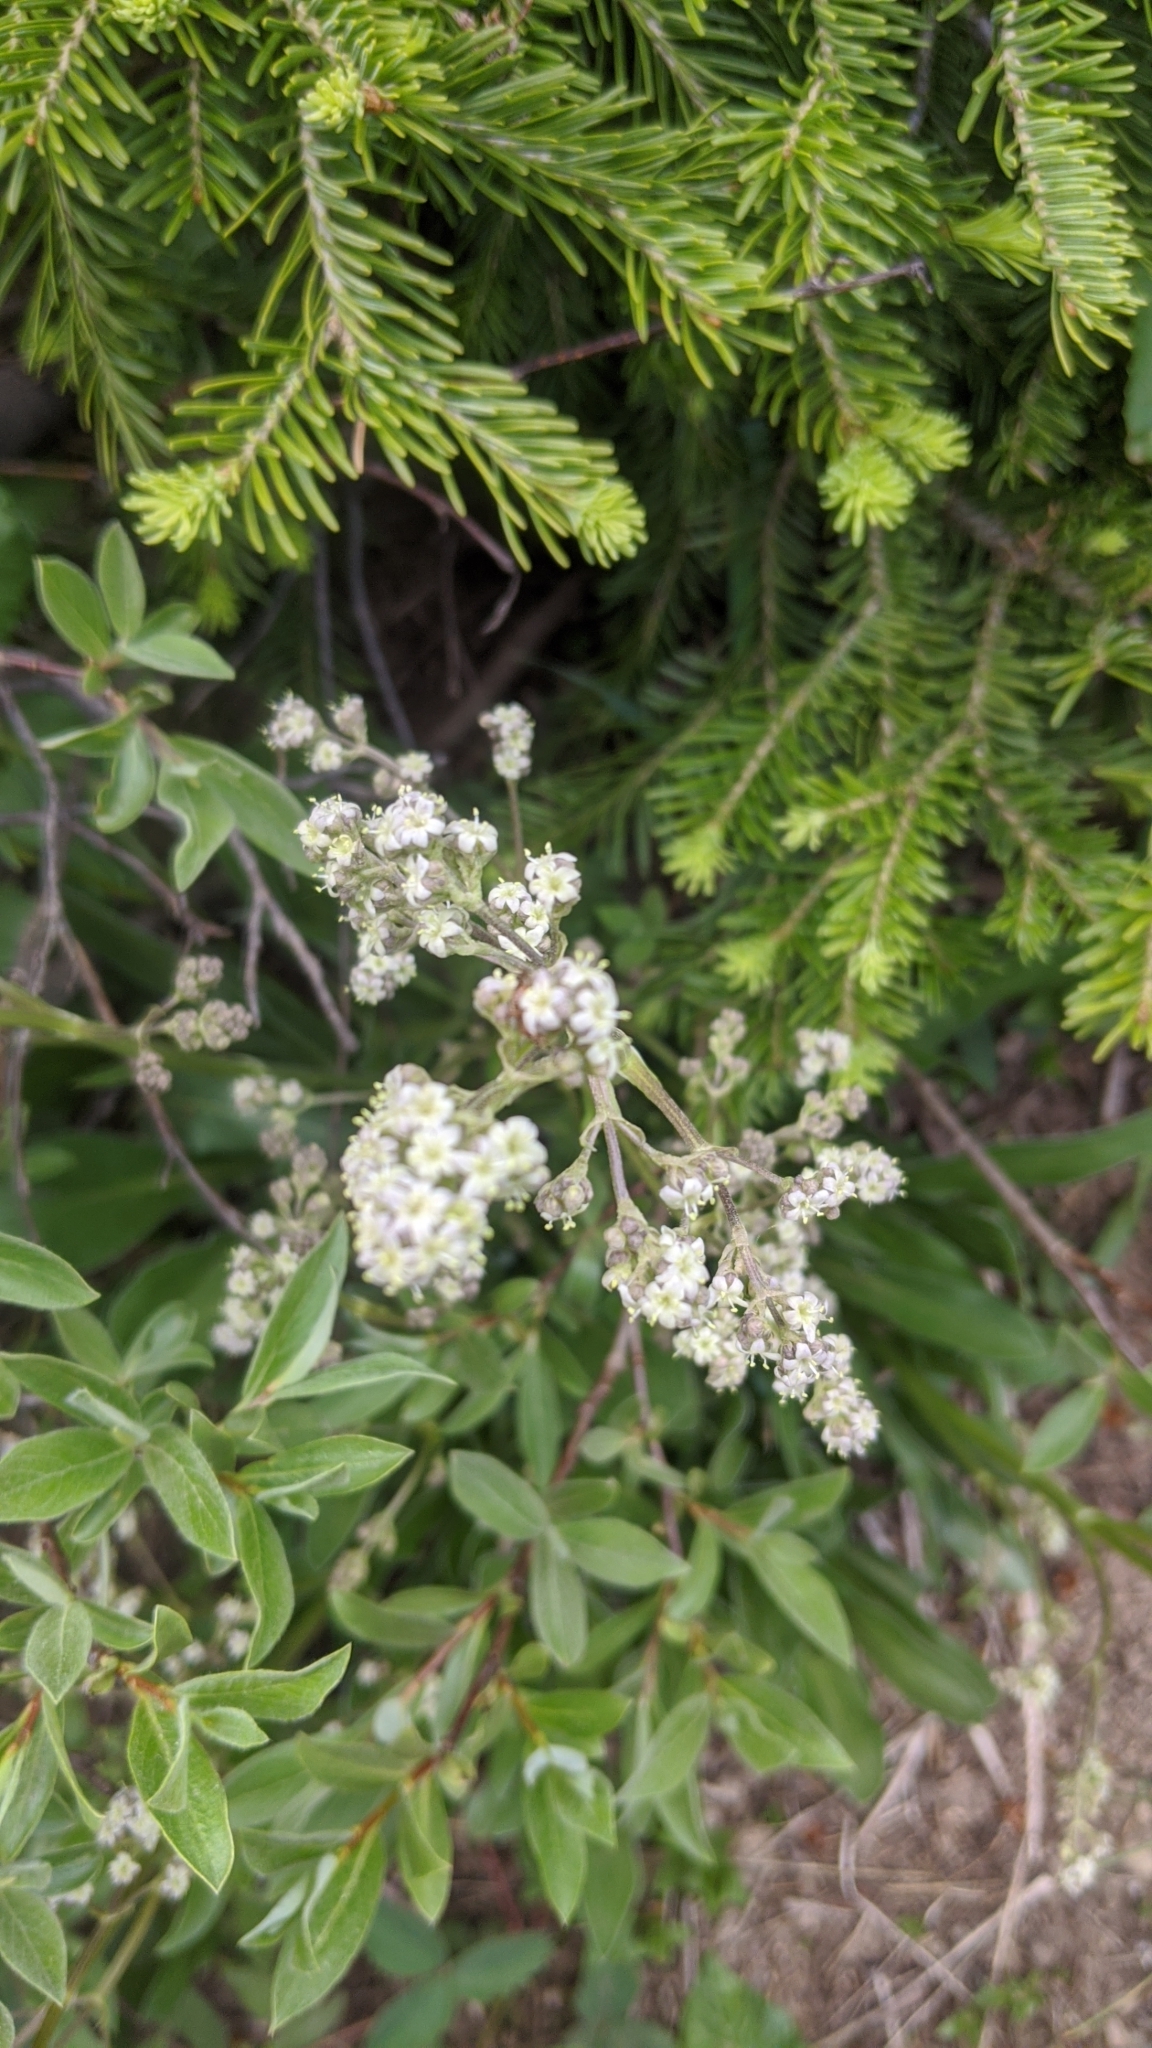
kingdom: Plantae
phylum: Tracheophyta
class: Magnoliopsida
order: Dipsacales
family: Caprifoliaceae
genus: Valeriana
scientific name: Valeriana edulis
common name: Taproot valerian
